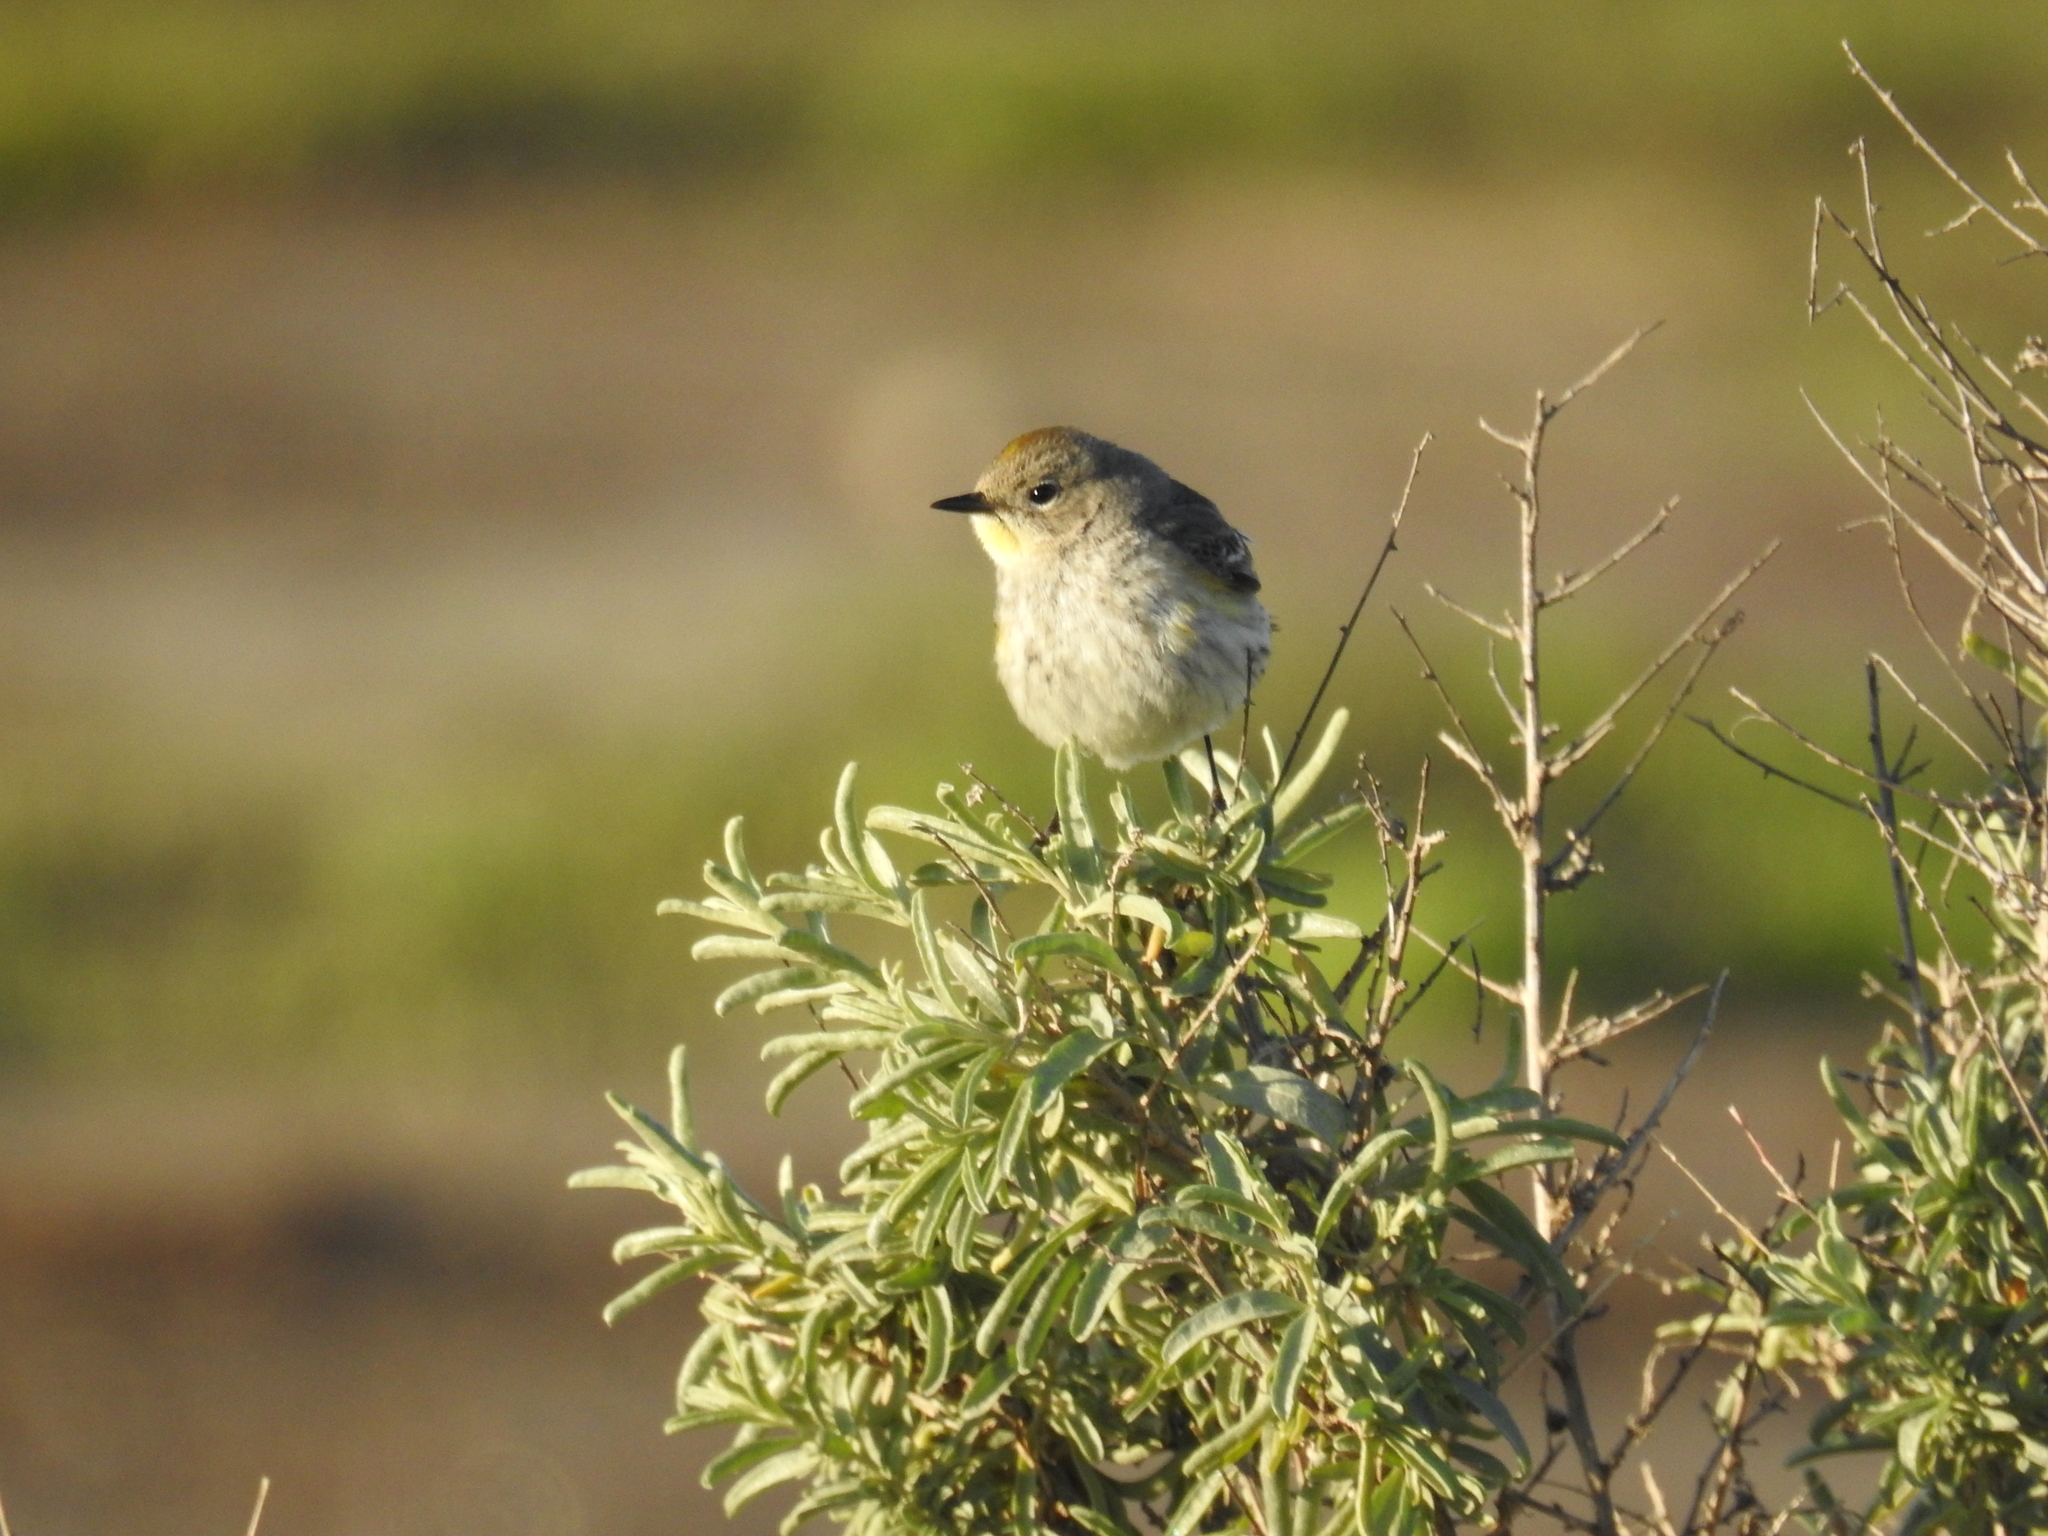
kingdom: Animalia
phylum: Chordata
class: Aves
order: Passeriformes
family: Parulidae
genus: Setophaga
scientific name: Setophaga coronata
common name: Myrtle warbler
